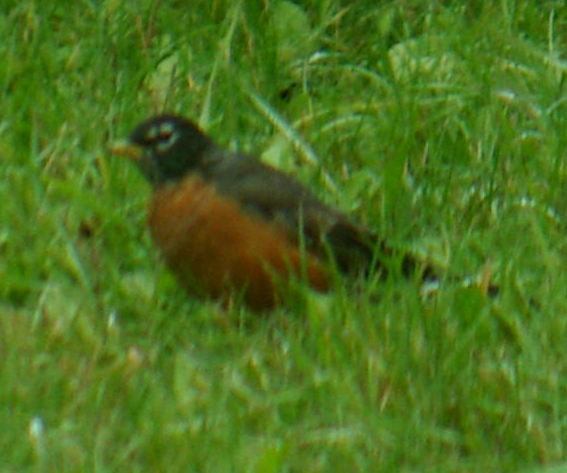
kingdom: Animalia
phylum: Chordata
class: Aves
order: Passeriformes
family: Turdidae
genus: Turdus
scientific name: Turdus migratorius
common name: American robin
